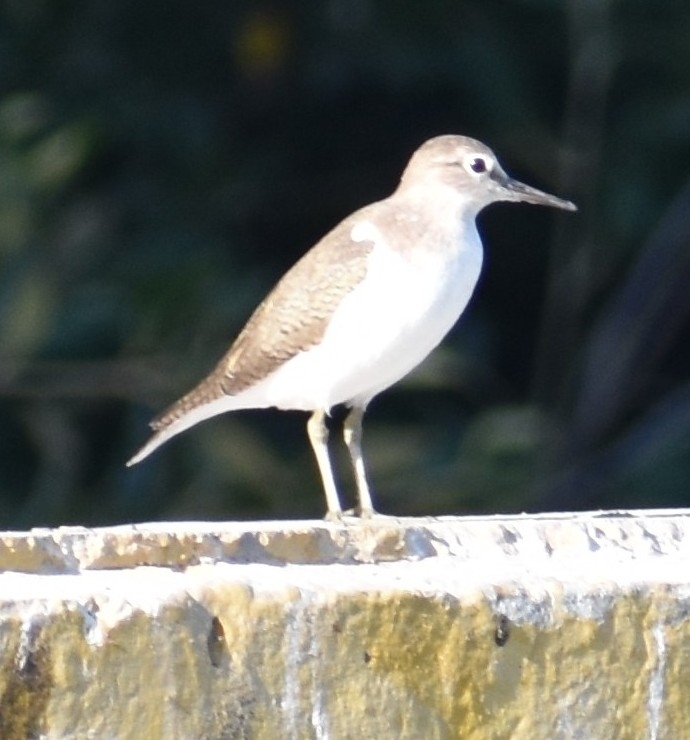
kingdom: Animalia
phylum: Chordata
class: Aves
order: Charadriiformes
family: Scolopacidae
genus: Actitis
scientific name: Actitis hypoleucos
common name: Common sandpiper
